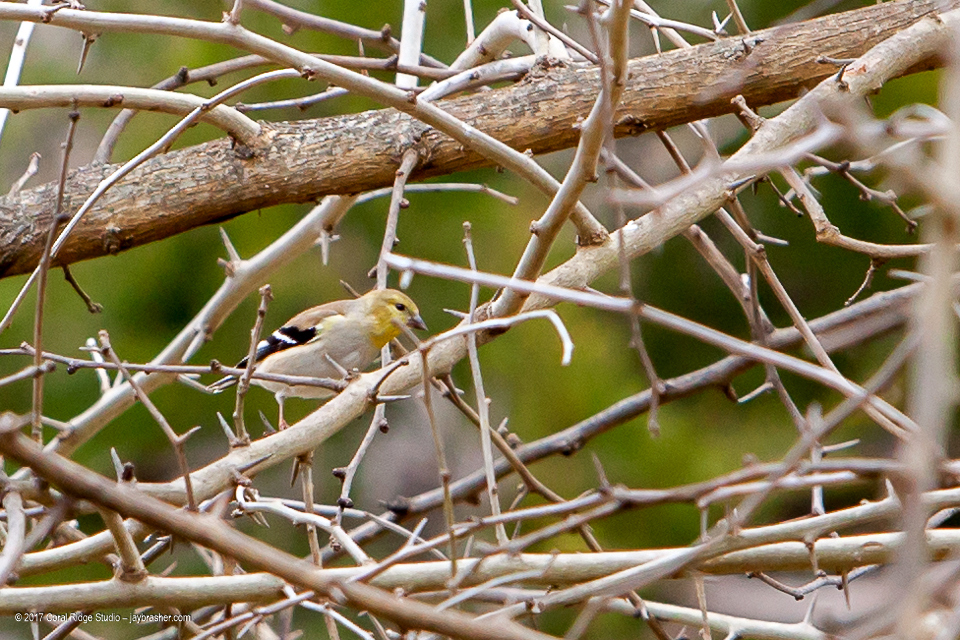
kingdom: Animalia
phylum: Chordata
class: Aves
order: Passeriformes
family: Fringillidae
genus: Spinus
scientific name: Spinus tristis
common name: American goldfinch
